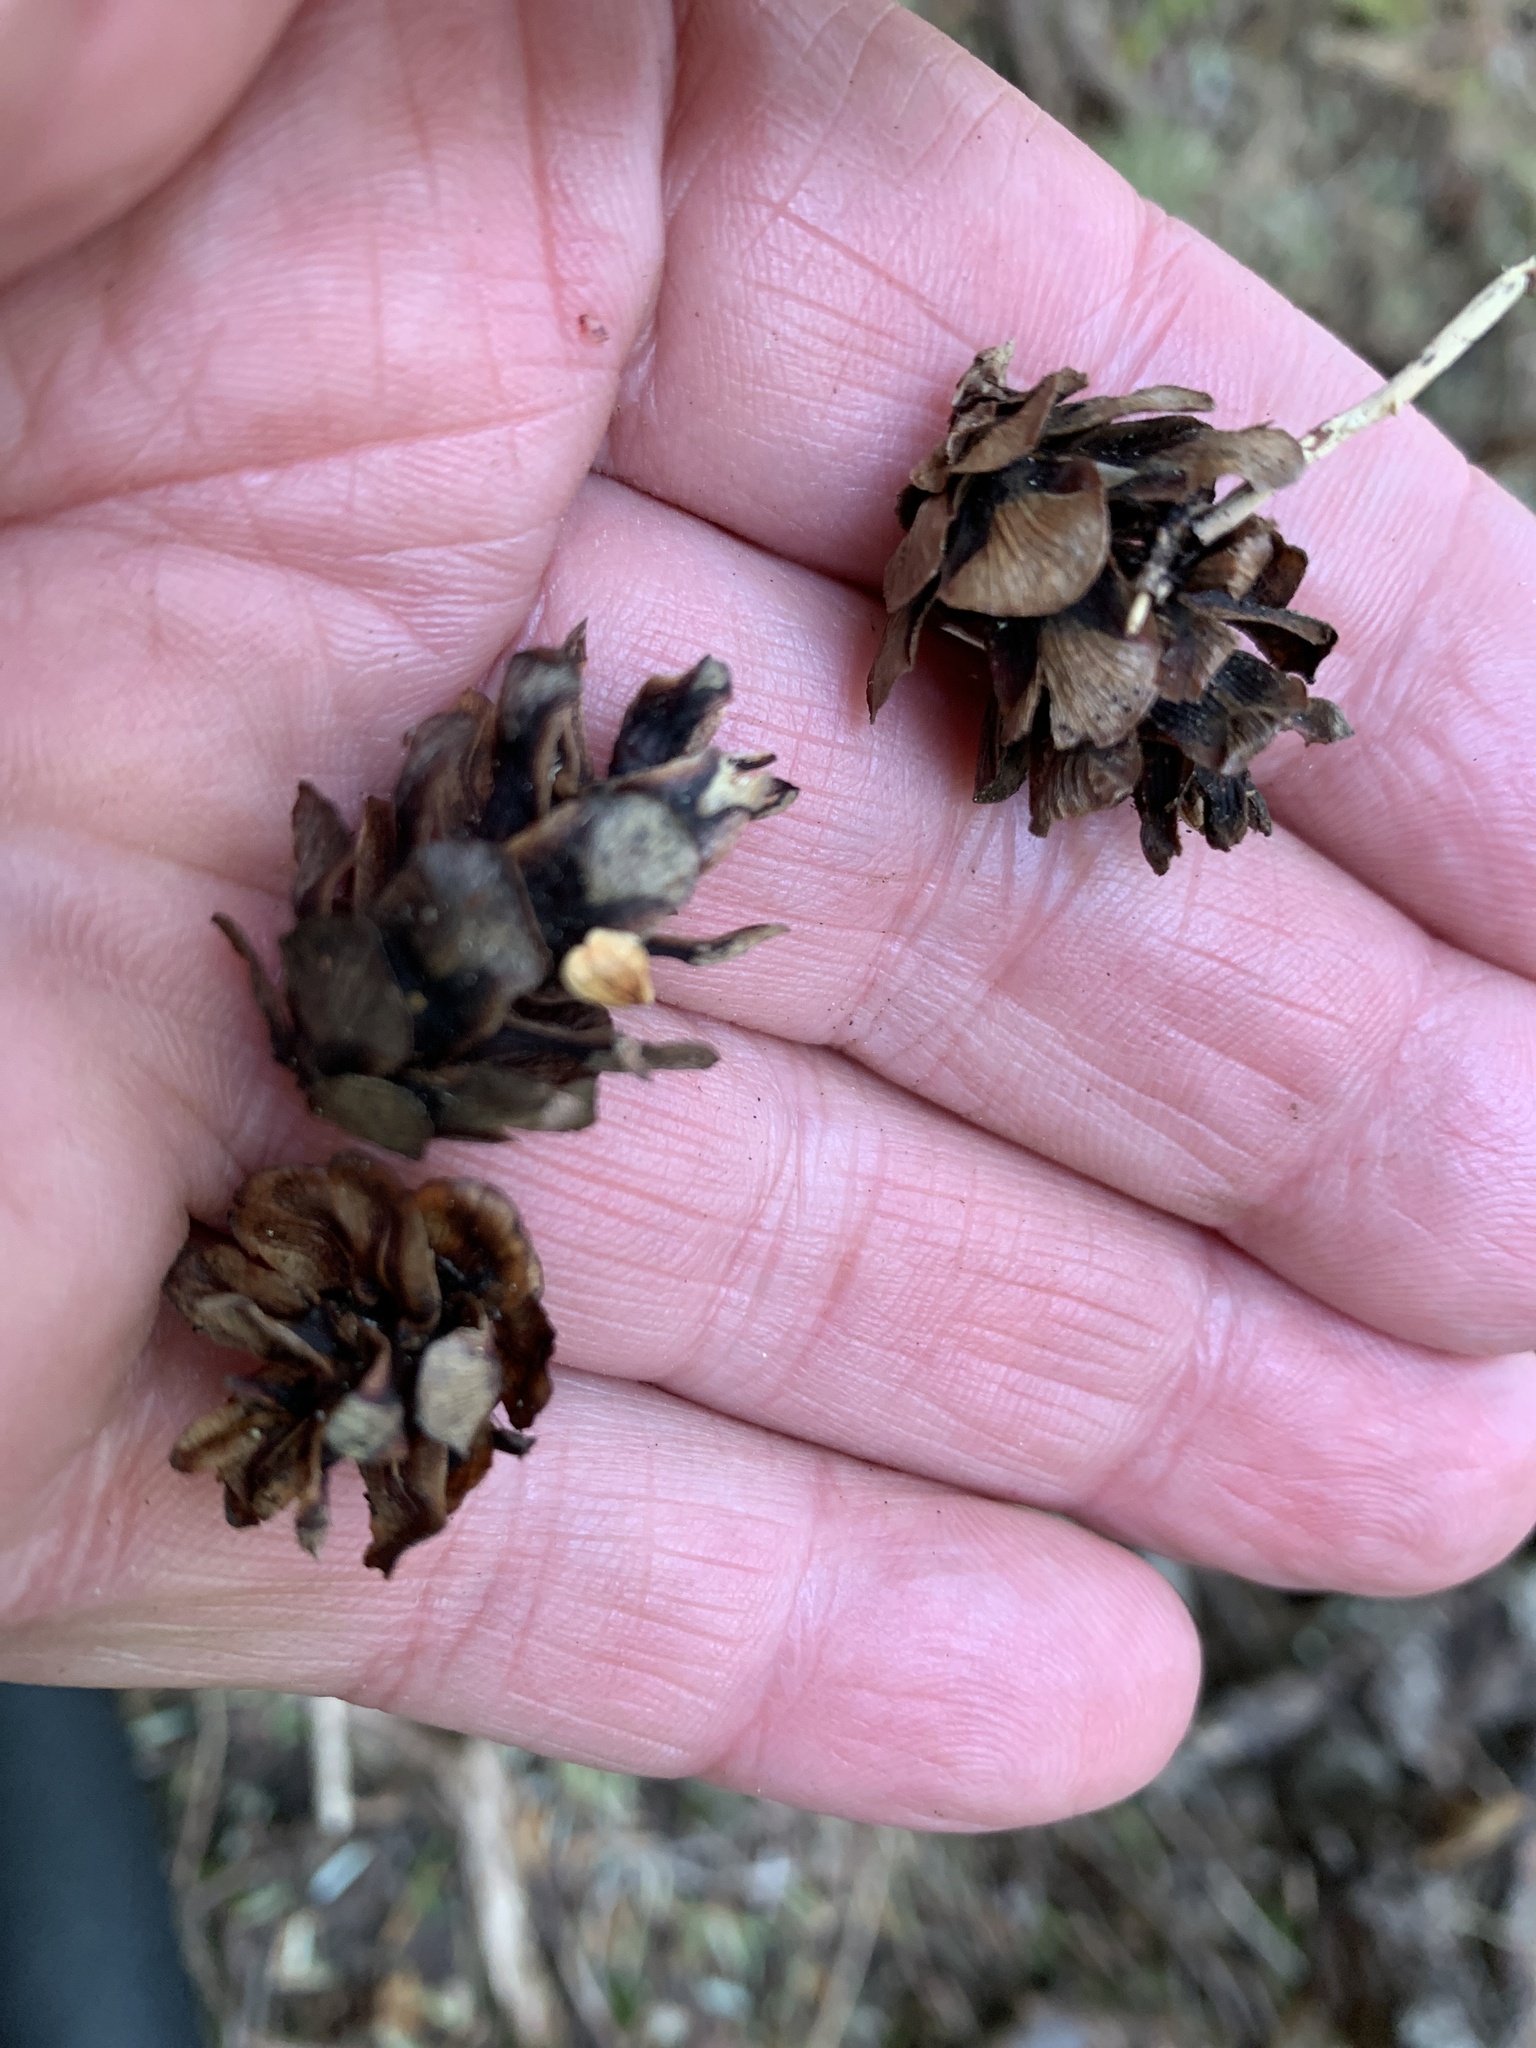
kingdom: Plantae
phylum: Tracheophyta
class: Pinopsida
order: Pinales
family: Pinaceae
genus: Tsuga
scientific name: Tsuga heterophylla
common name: Western hemlock
